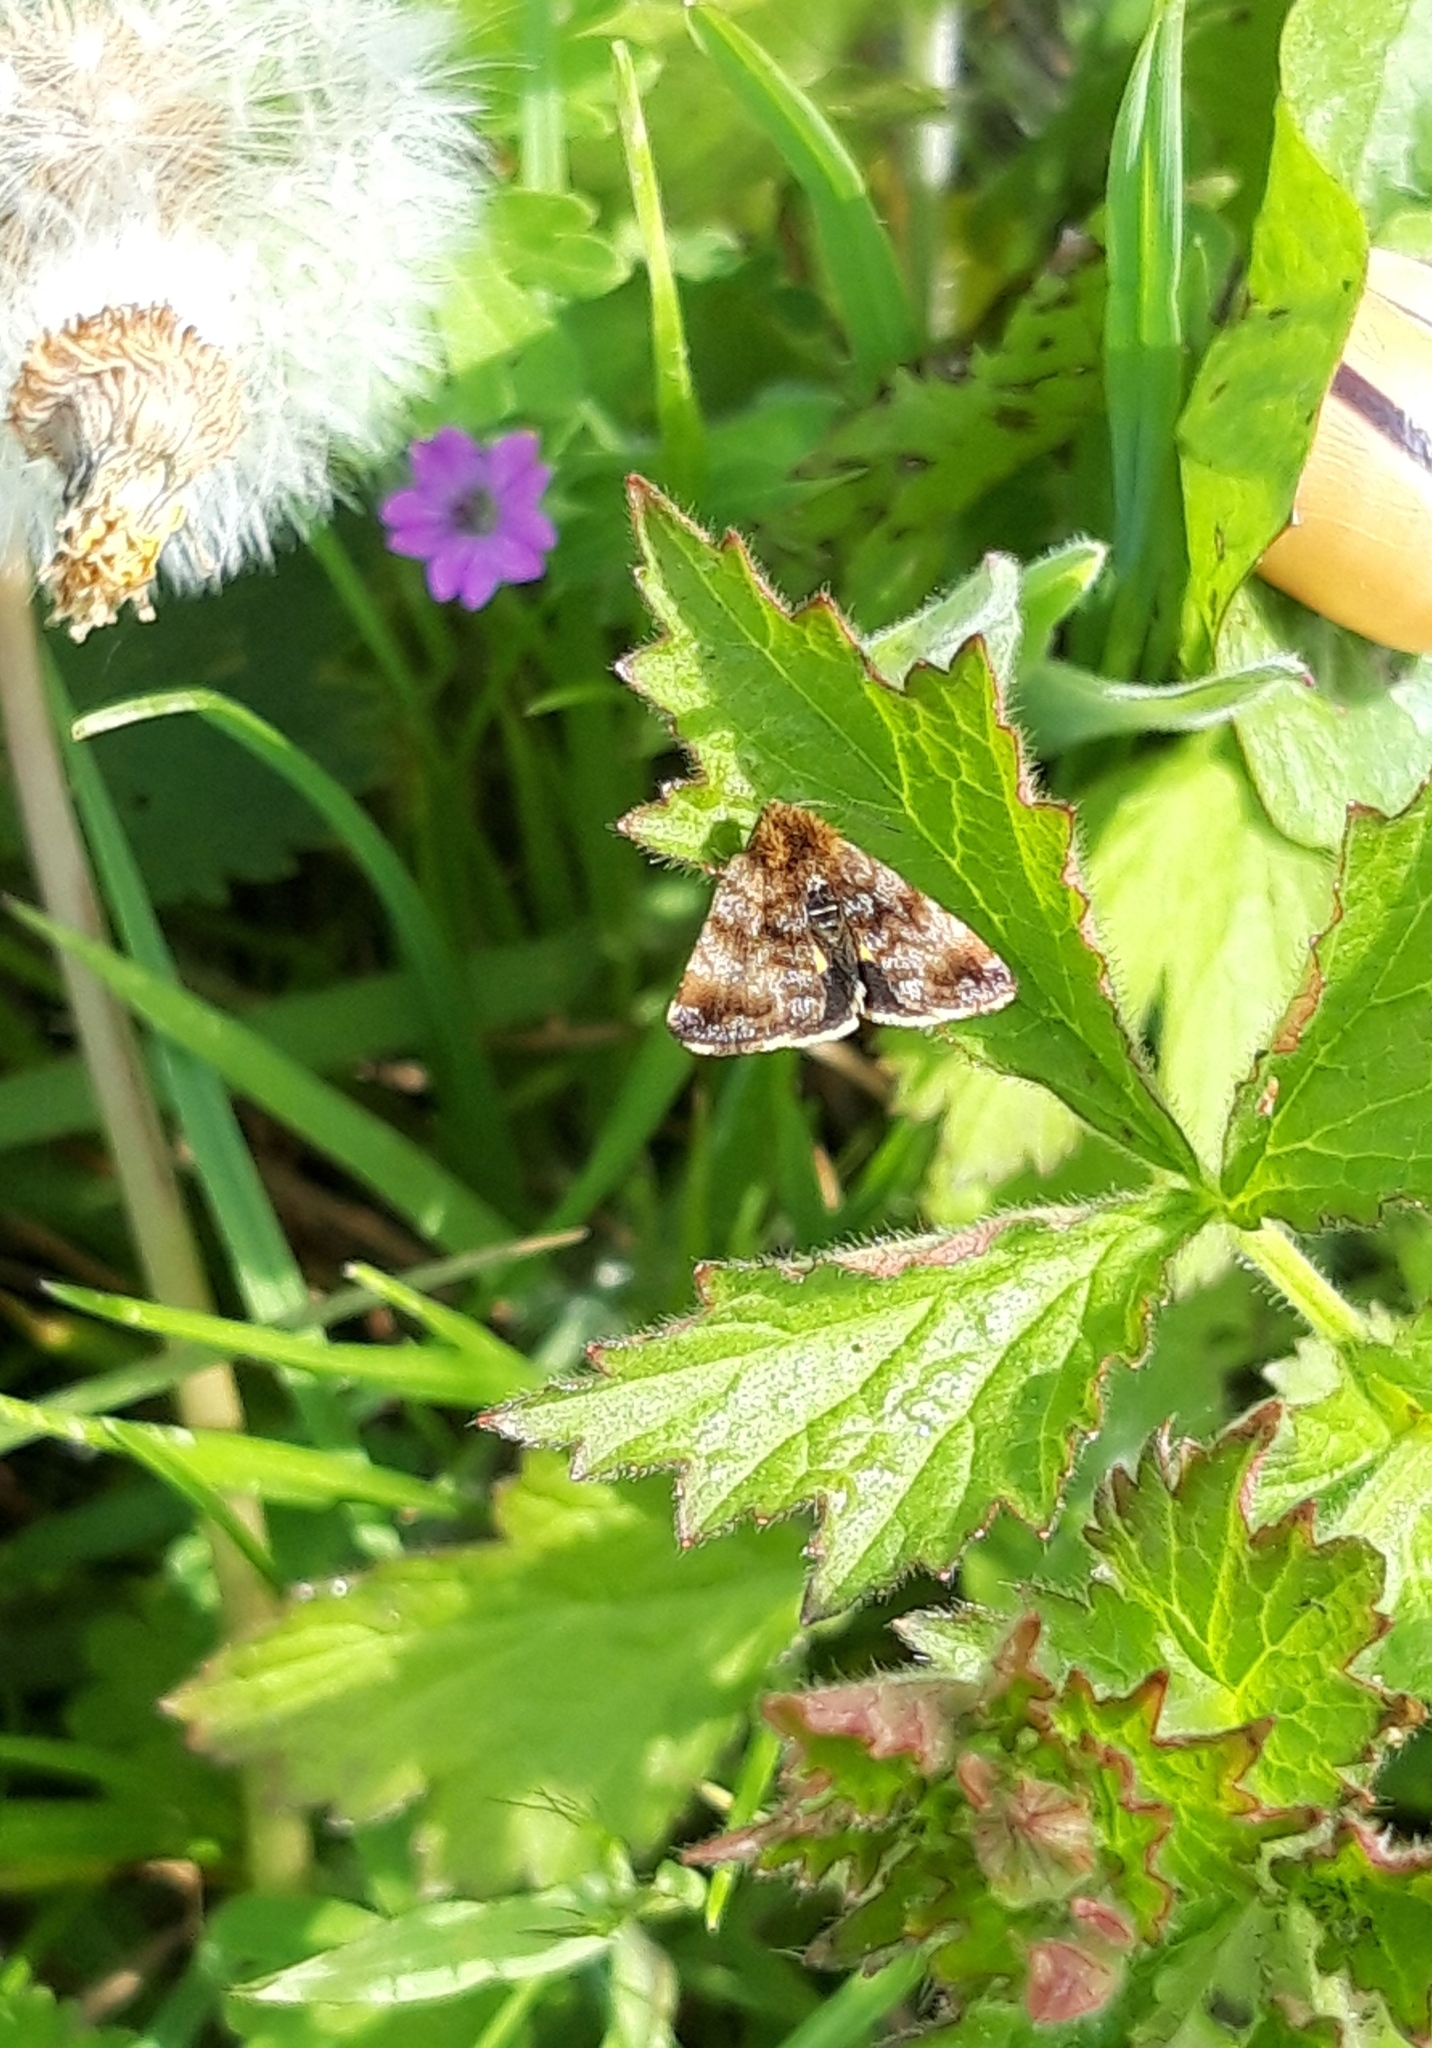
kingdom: Animalia
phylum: Arthropoda
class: Insecta
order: Lepidoptera
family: Noctuidae
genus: Panemeria
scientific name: Panemeria tenebrata
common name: Small yellow underwing
